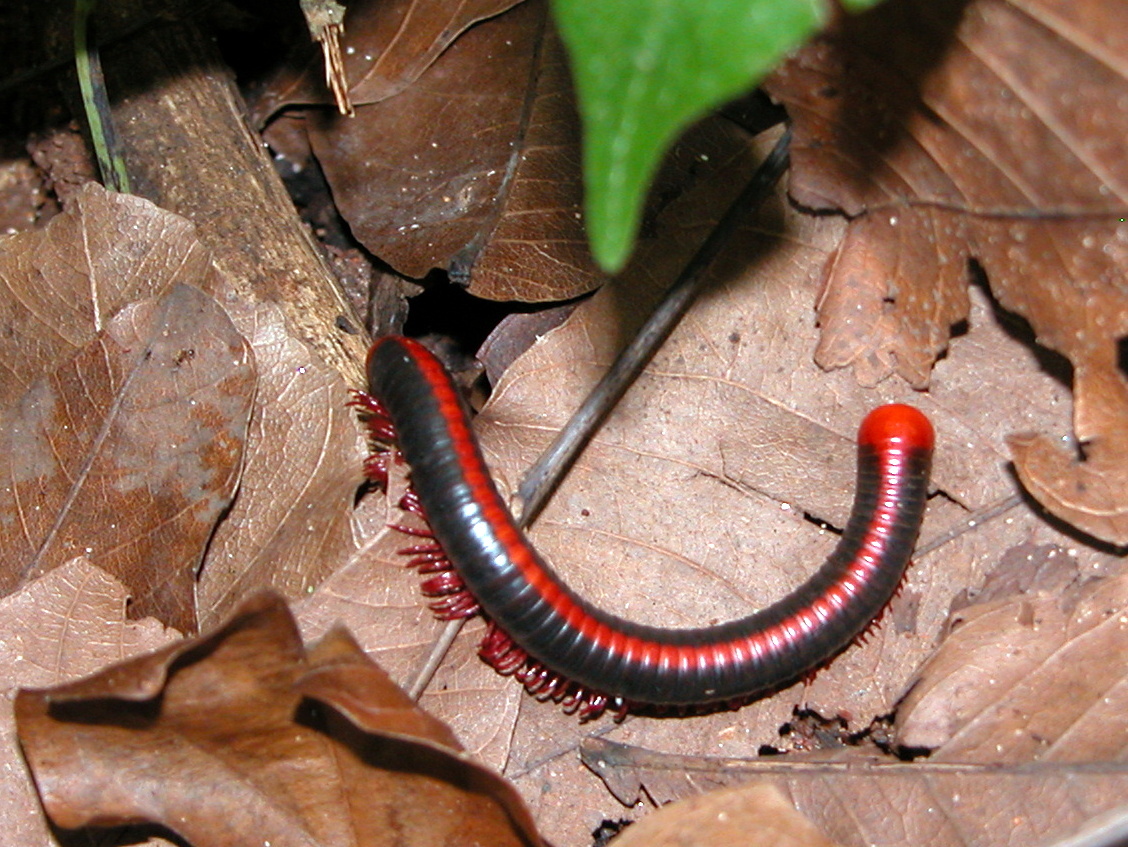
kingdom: Animalia
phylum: Arthropoda
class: Diplopoda
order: Spirobolida
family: Pachybolidae
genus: Xenobolus
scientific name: Xenobolus carnifex
